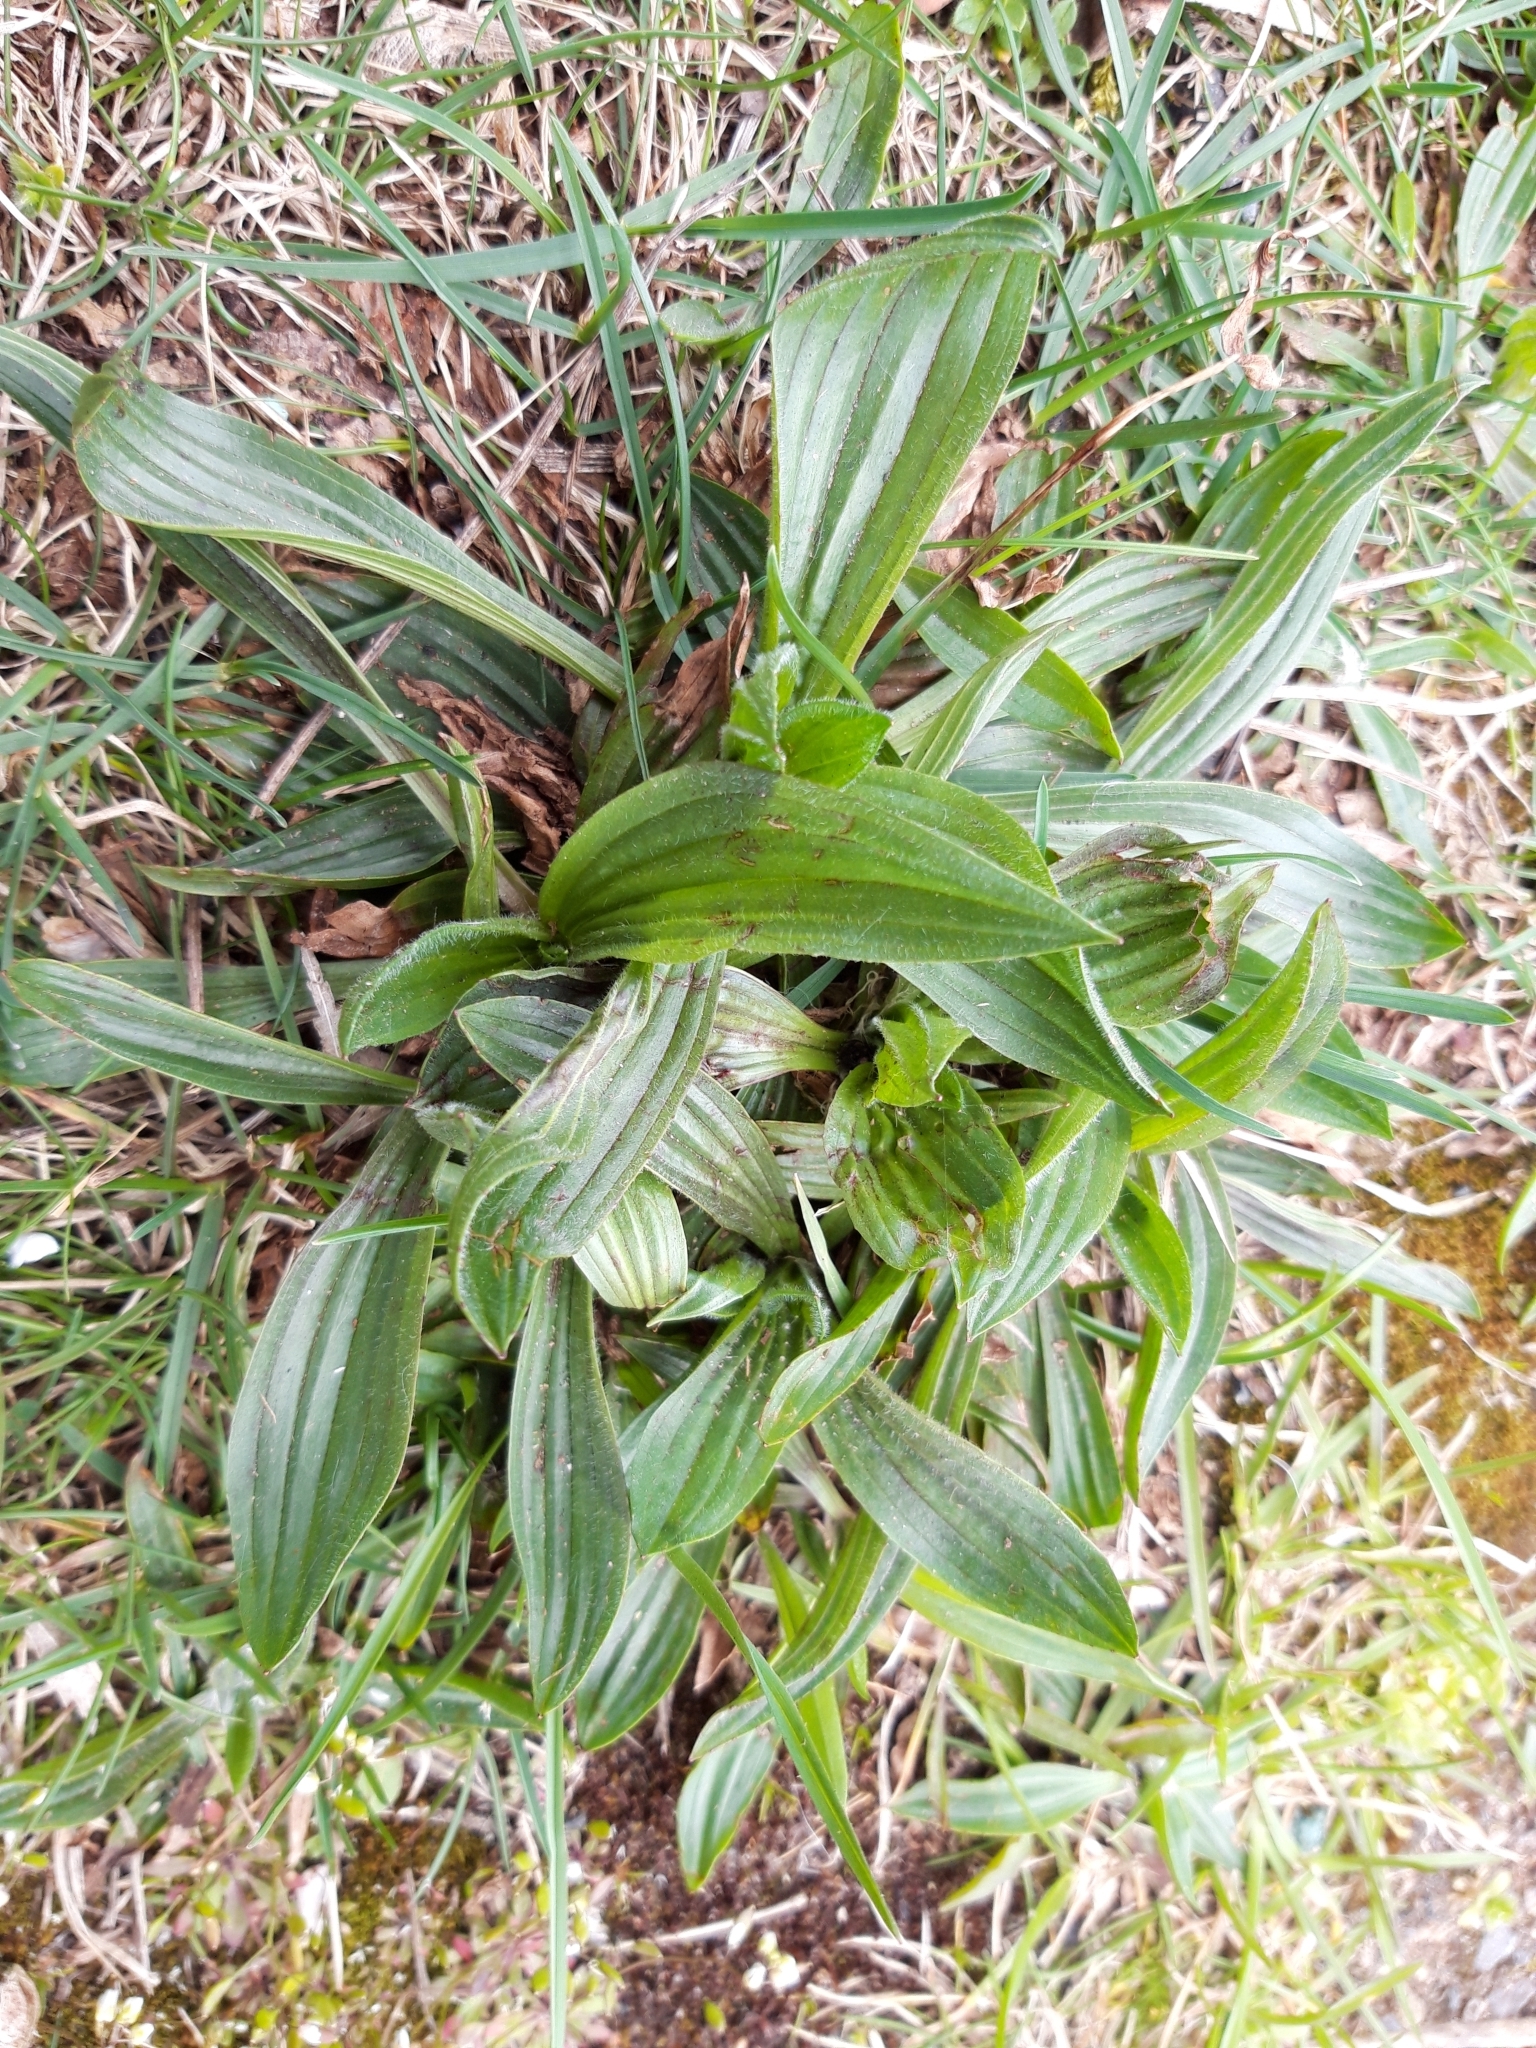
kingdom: Plantae
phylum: Tracheophyta
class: Magnoliopsida
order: Lamiales
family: Plantaginaceae
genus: Plantago
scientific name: Plantago lanceolata
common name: Ribwort plantain
